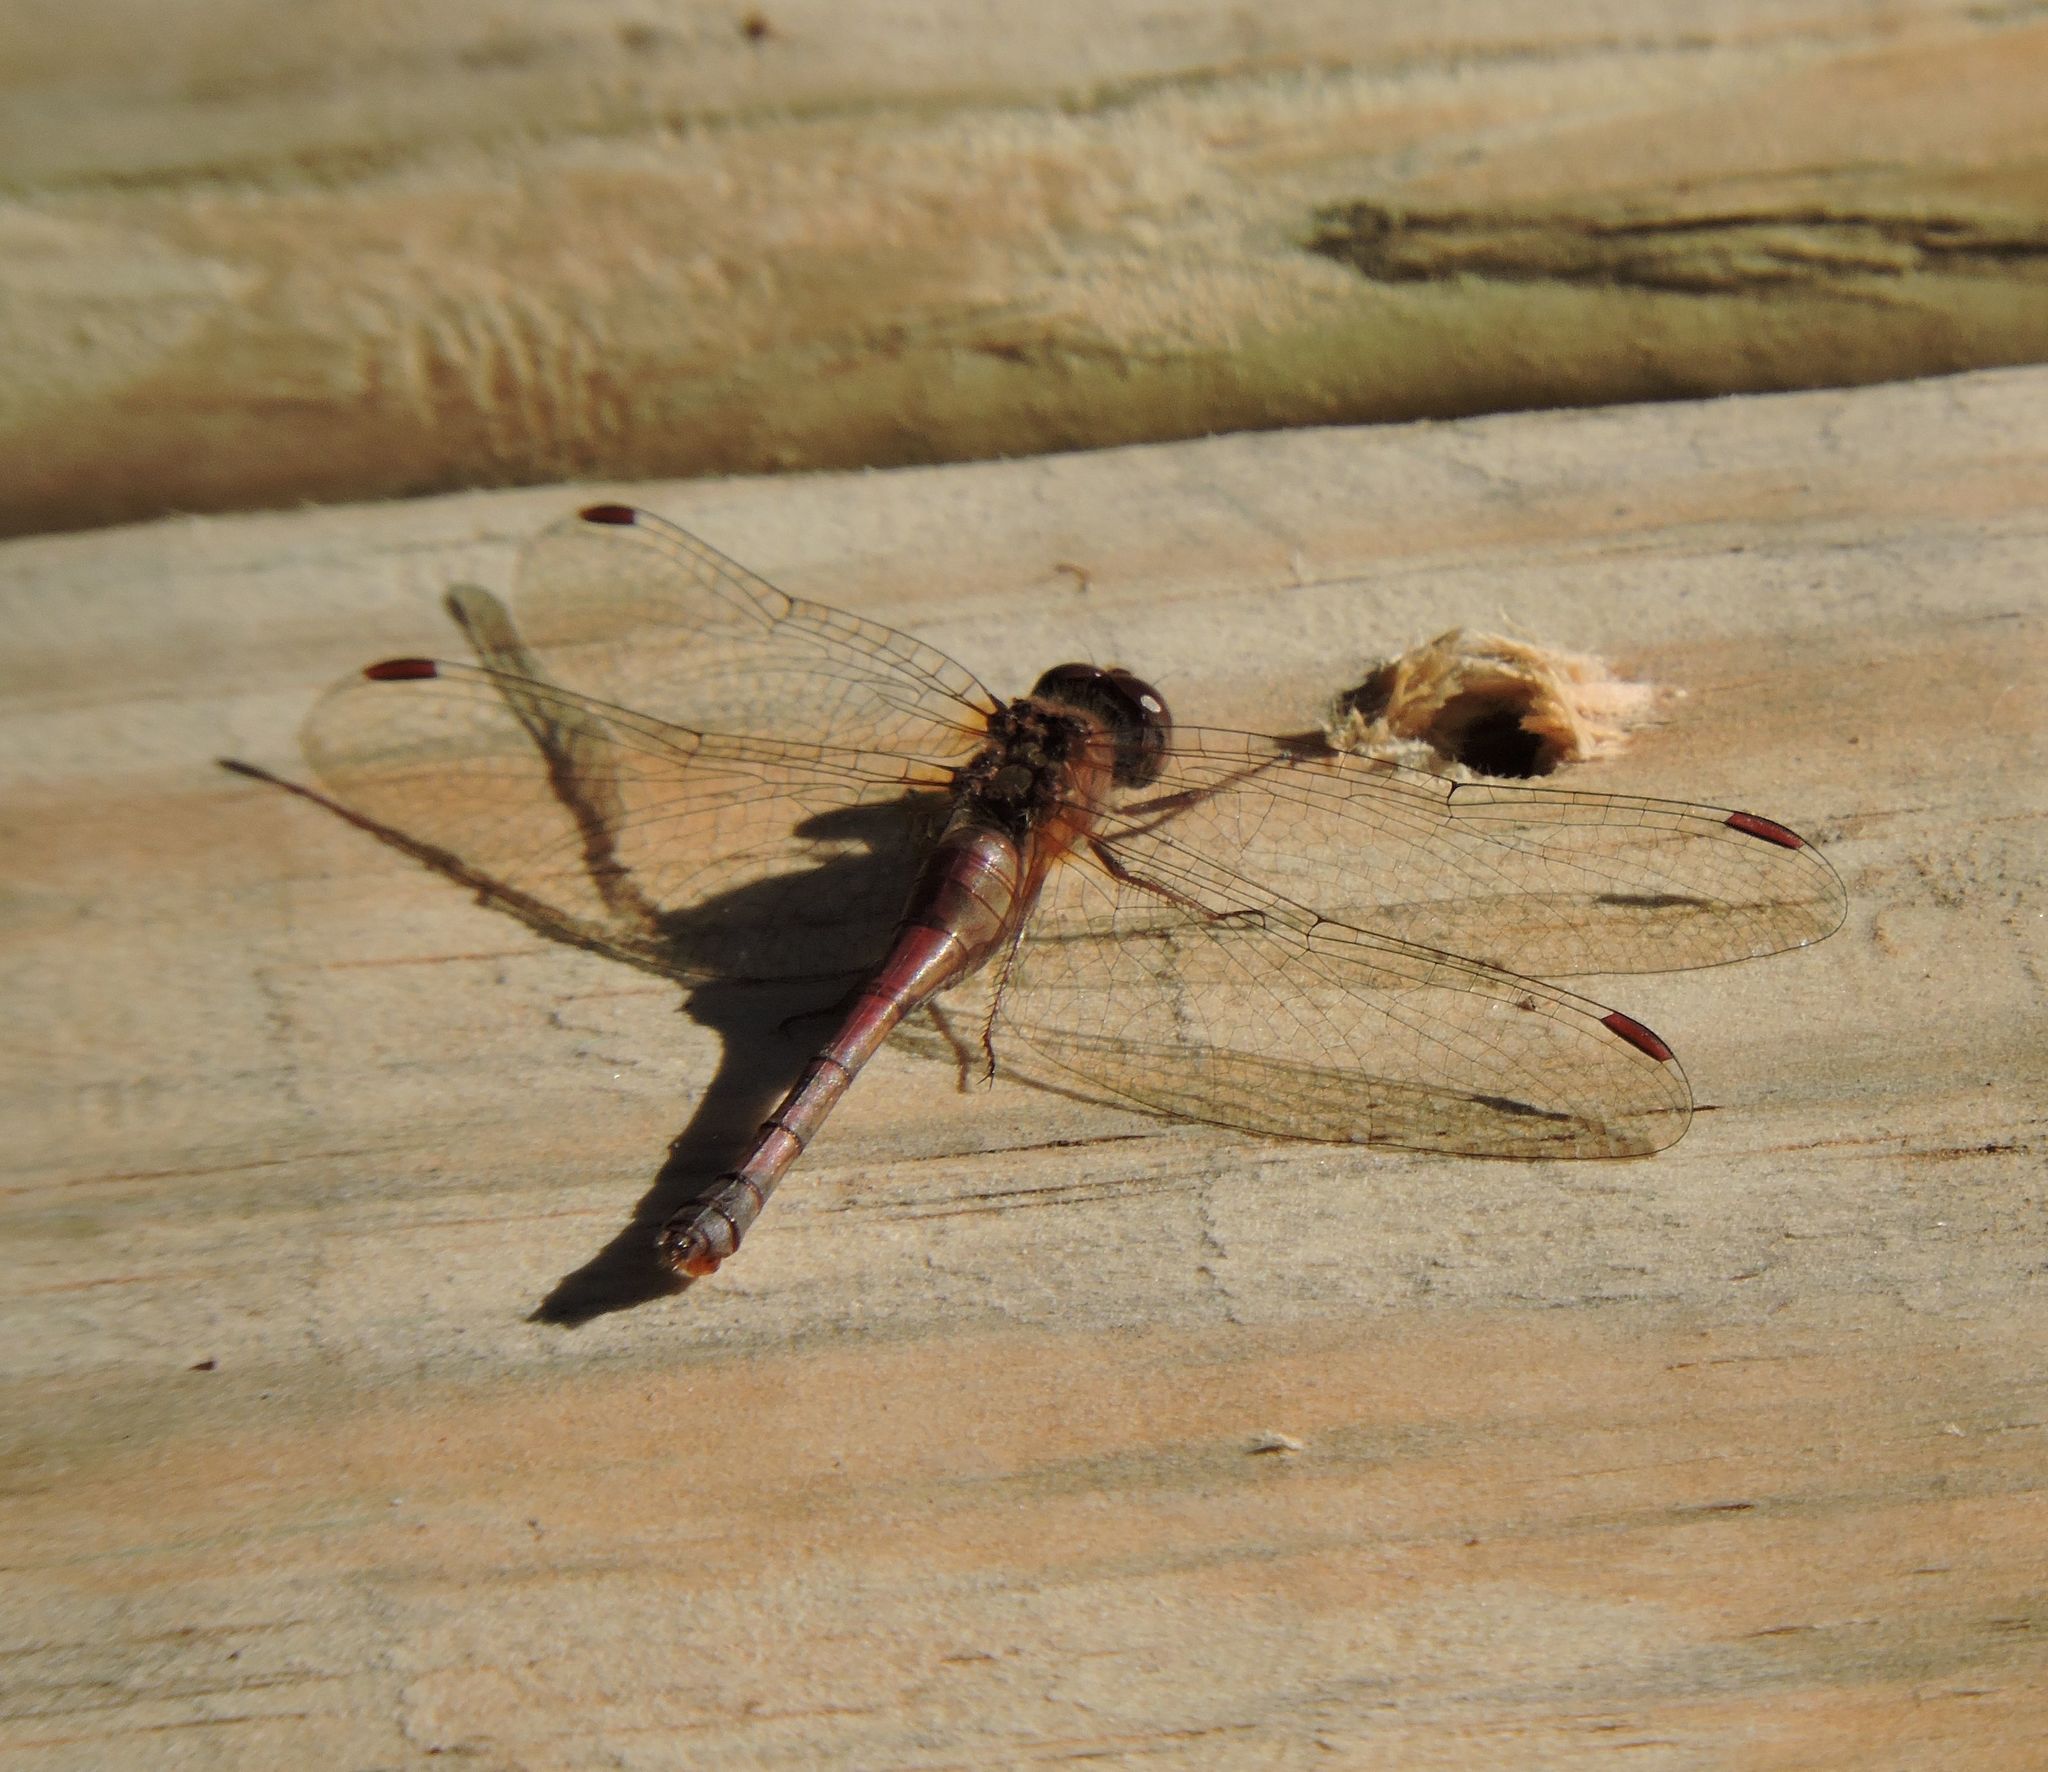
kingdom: Animalia
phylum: Arthropoda
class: Insecta
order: Odonata
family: Libellulidae
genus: Sympetrum
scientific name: Sympetrum vicinum
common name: Autumn meadowhawk
